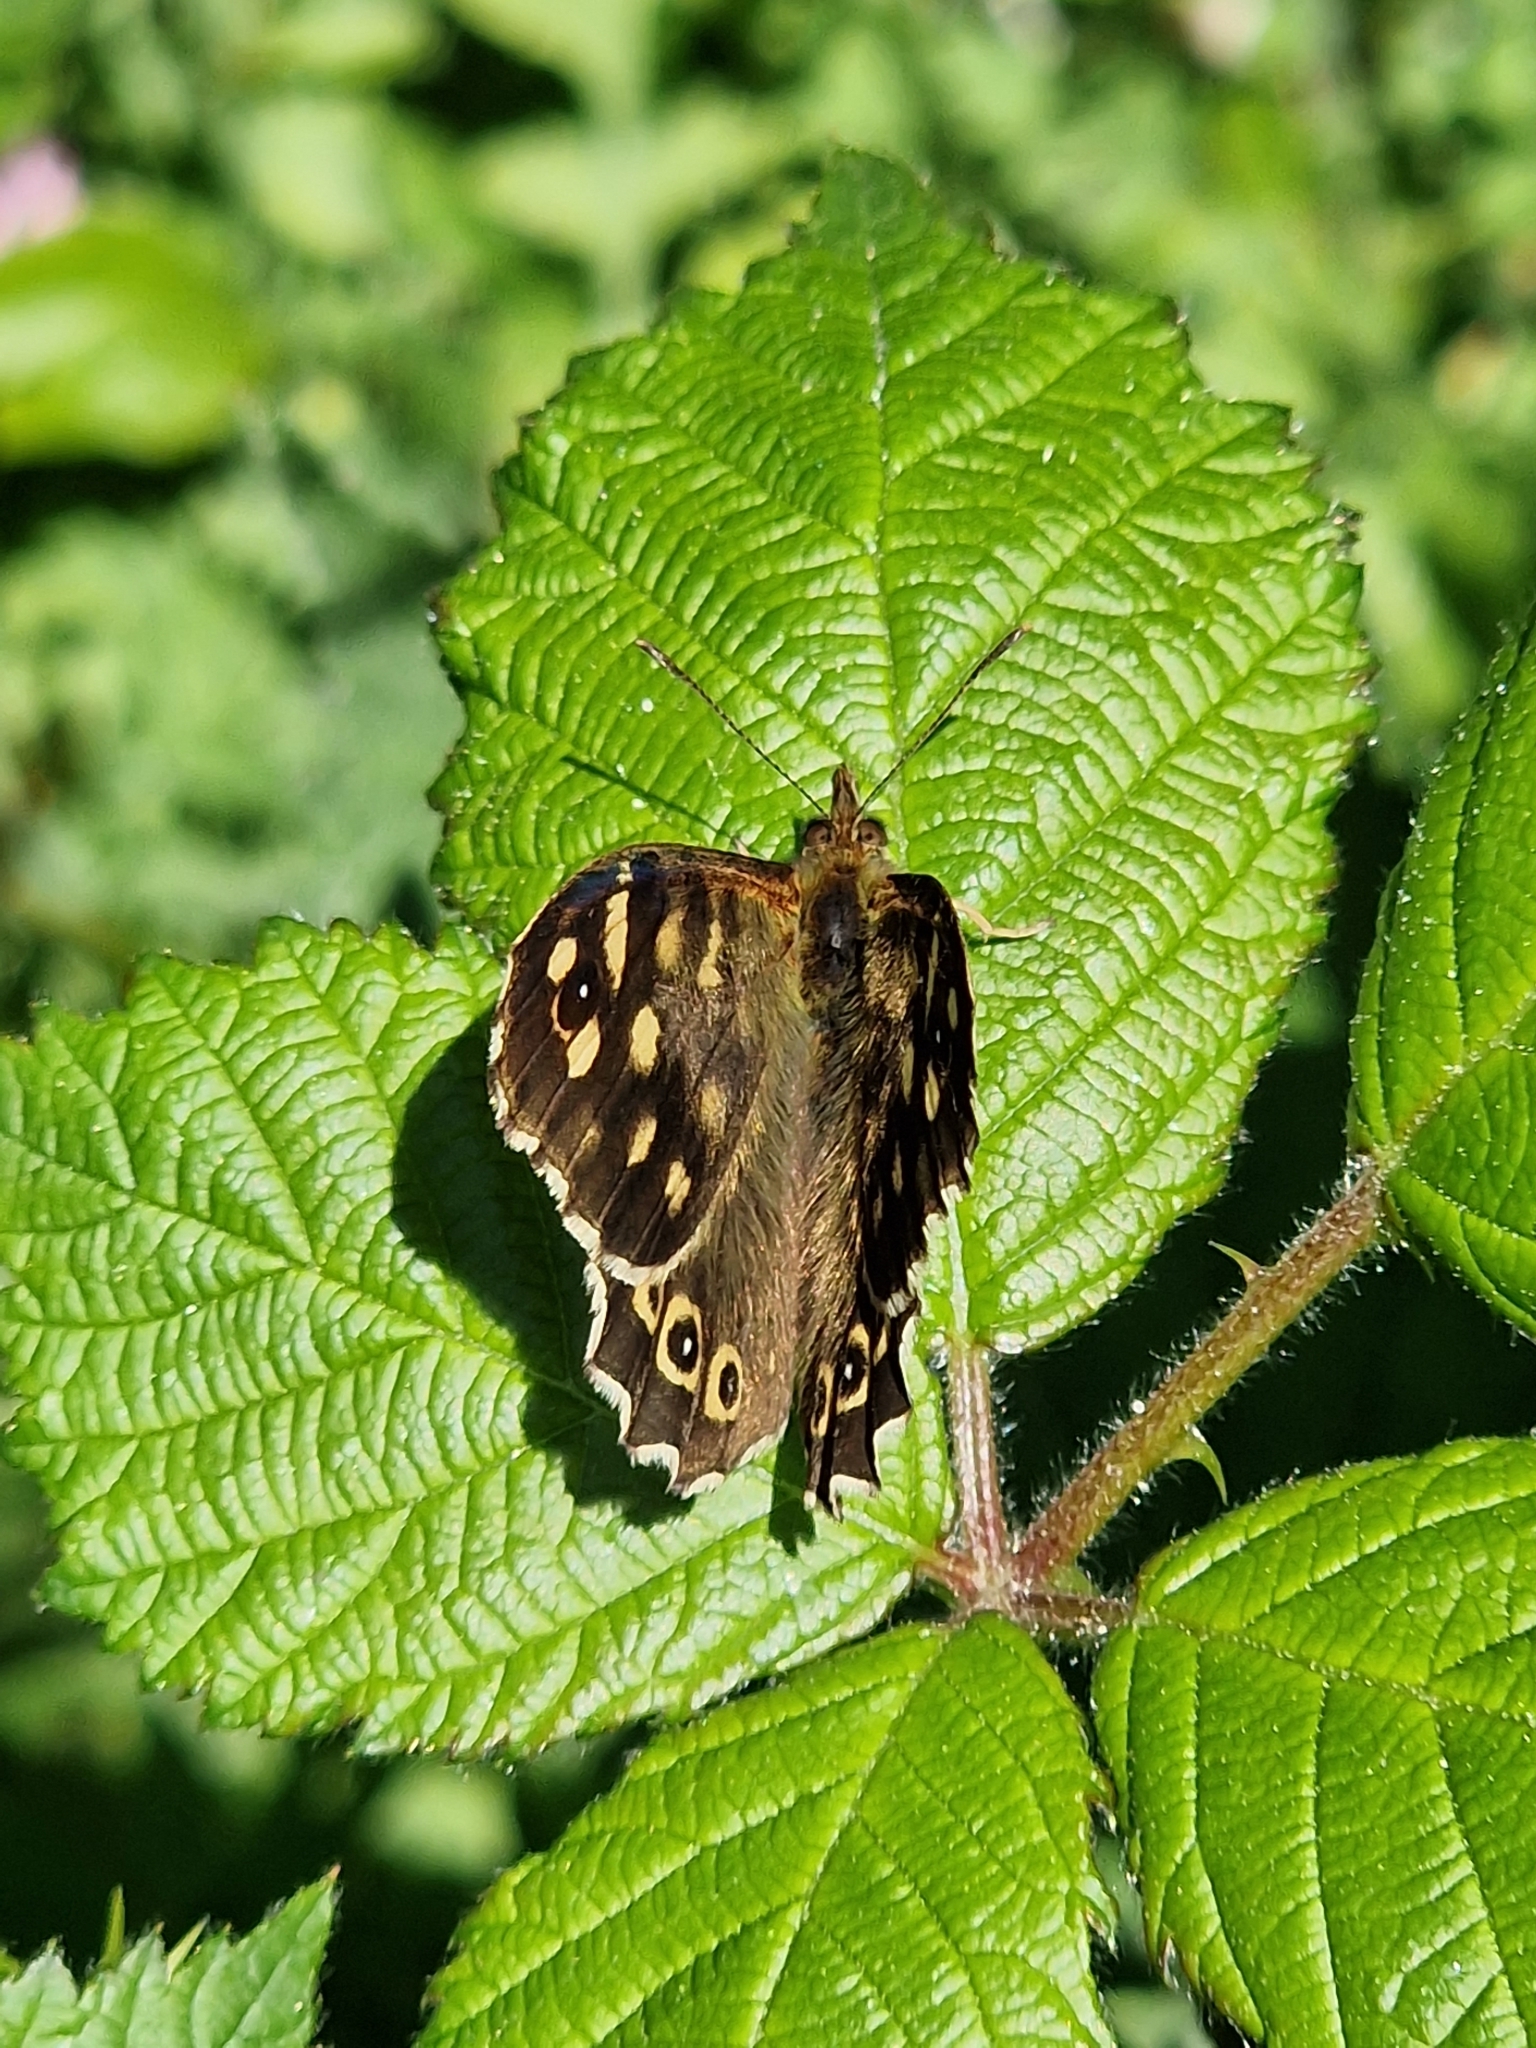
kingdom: Animalia
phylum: Arthropoda
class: Insecta
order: Lepidoptera
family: Nymphalidae
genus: Pararge
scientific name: Pararge aegeria
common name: Speckled wood
